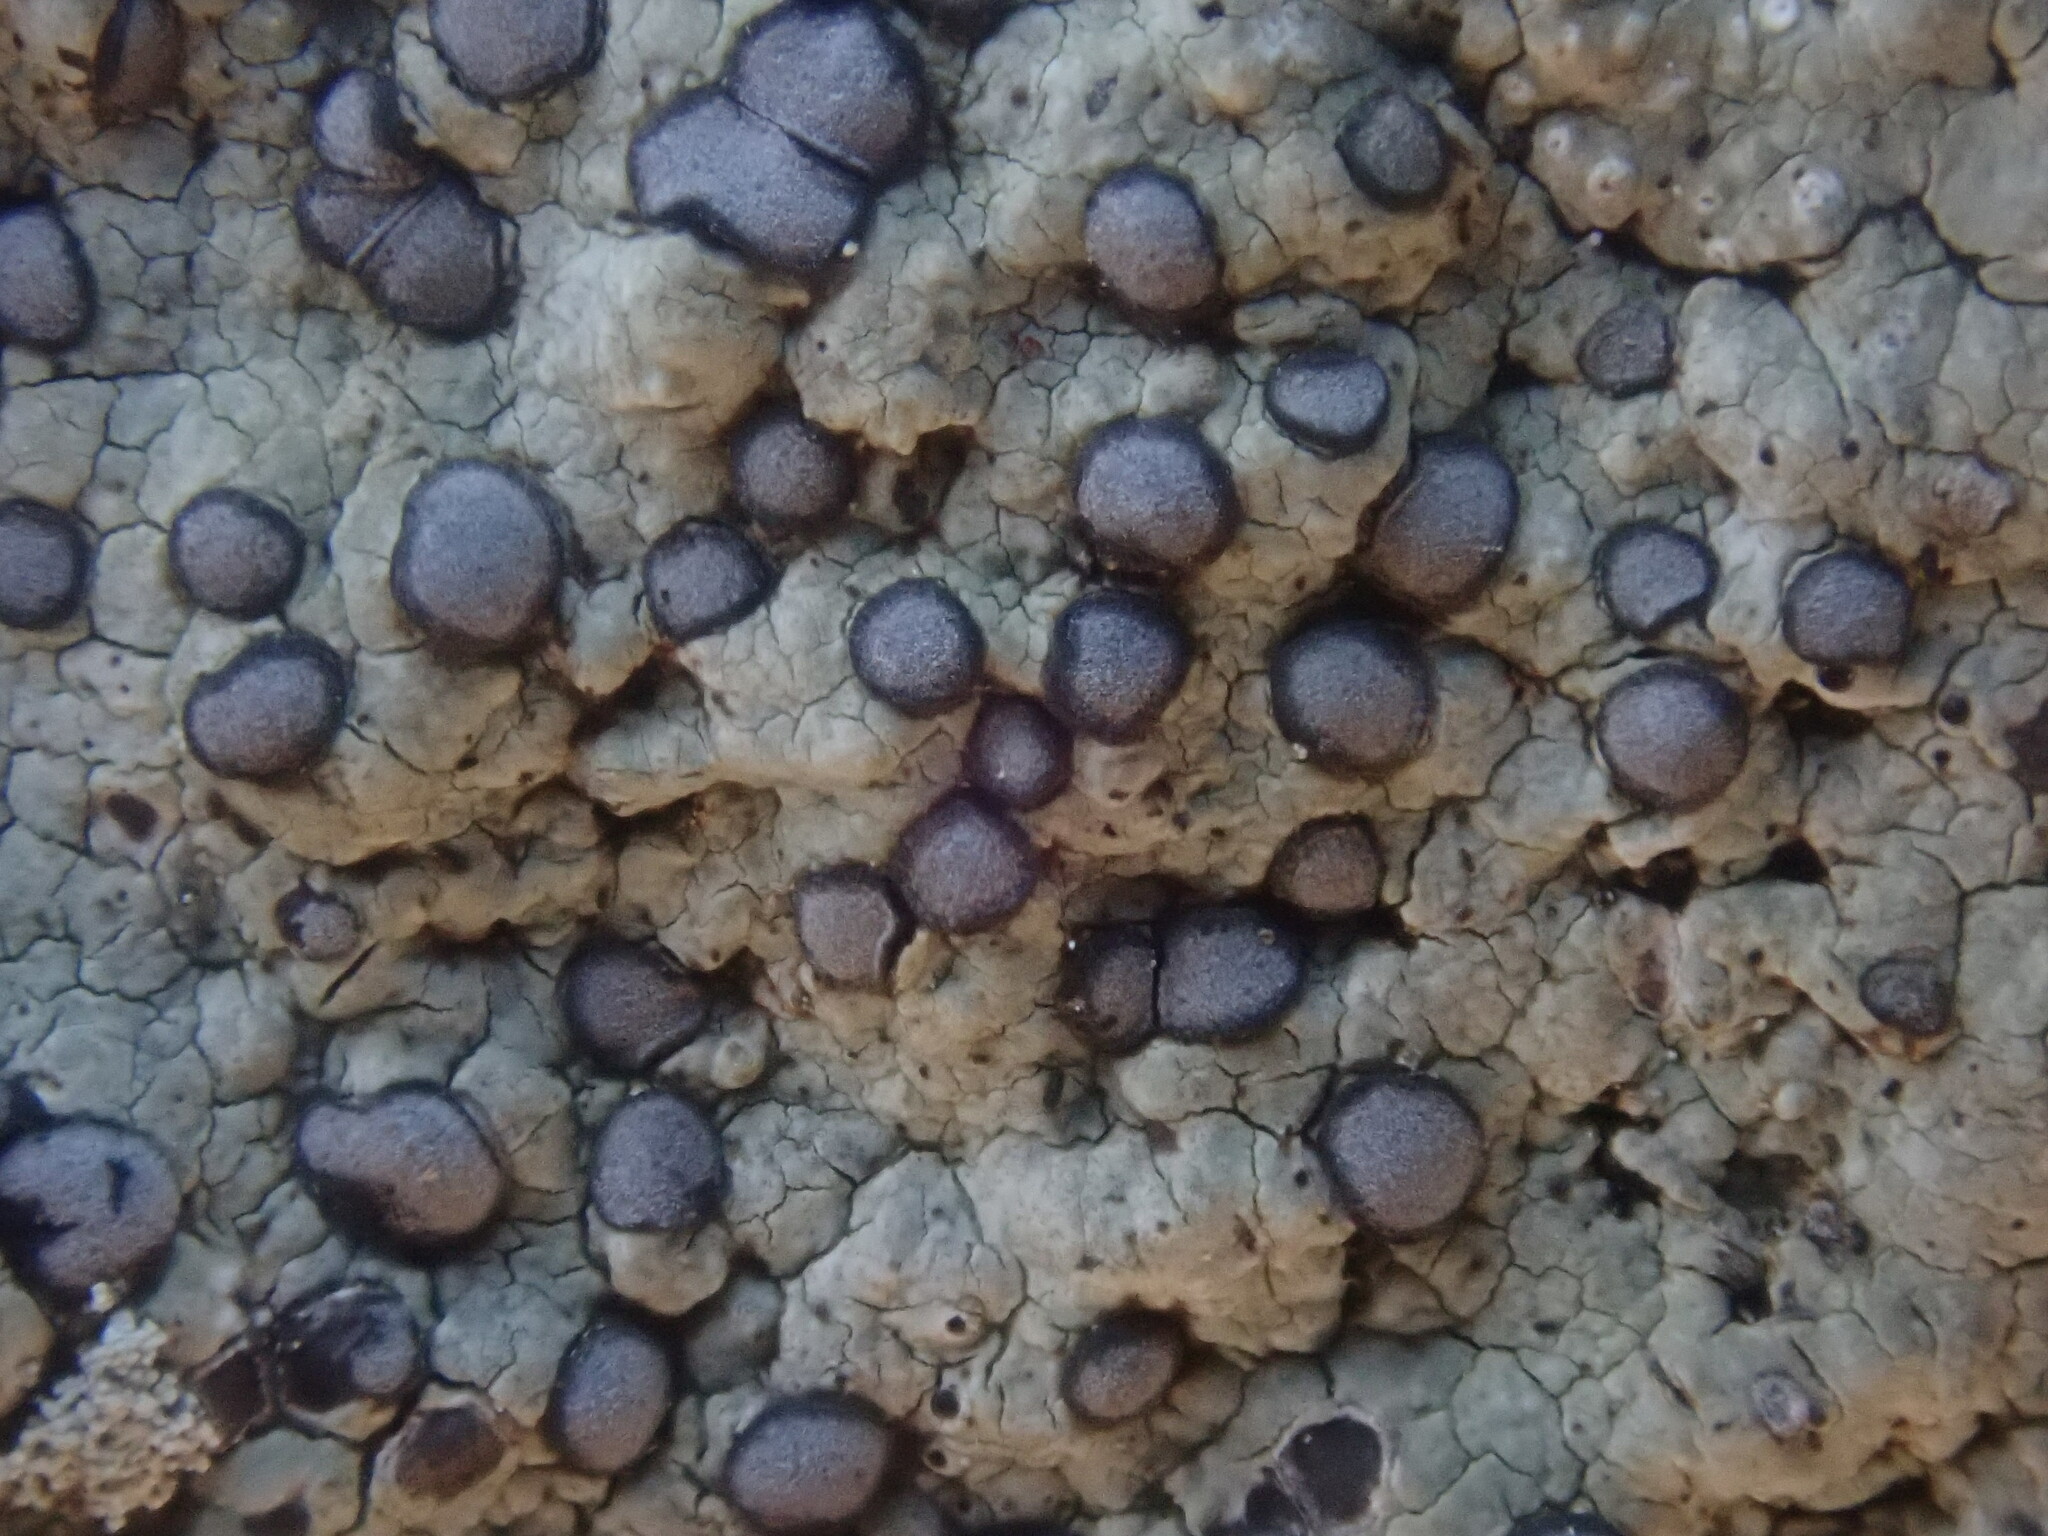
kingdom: Fungi
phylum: Ascomycota
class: Lecanoromycetes
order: Lecideales
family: Lecideaceae
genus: Porpidia
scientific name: Porpidia albocaerulescens
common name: Smokey-eyed boulder lichen
